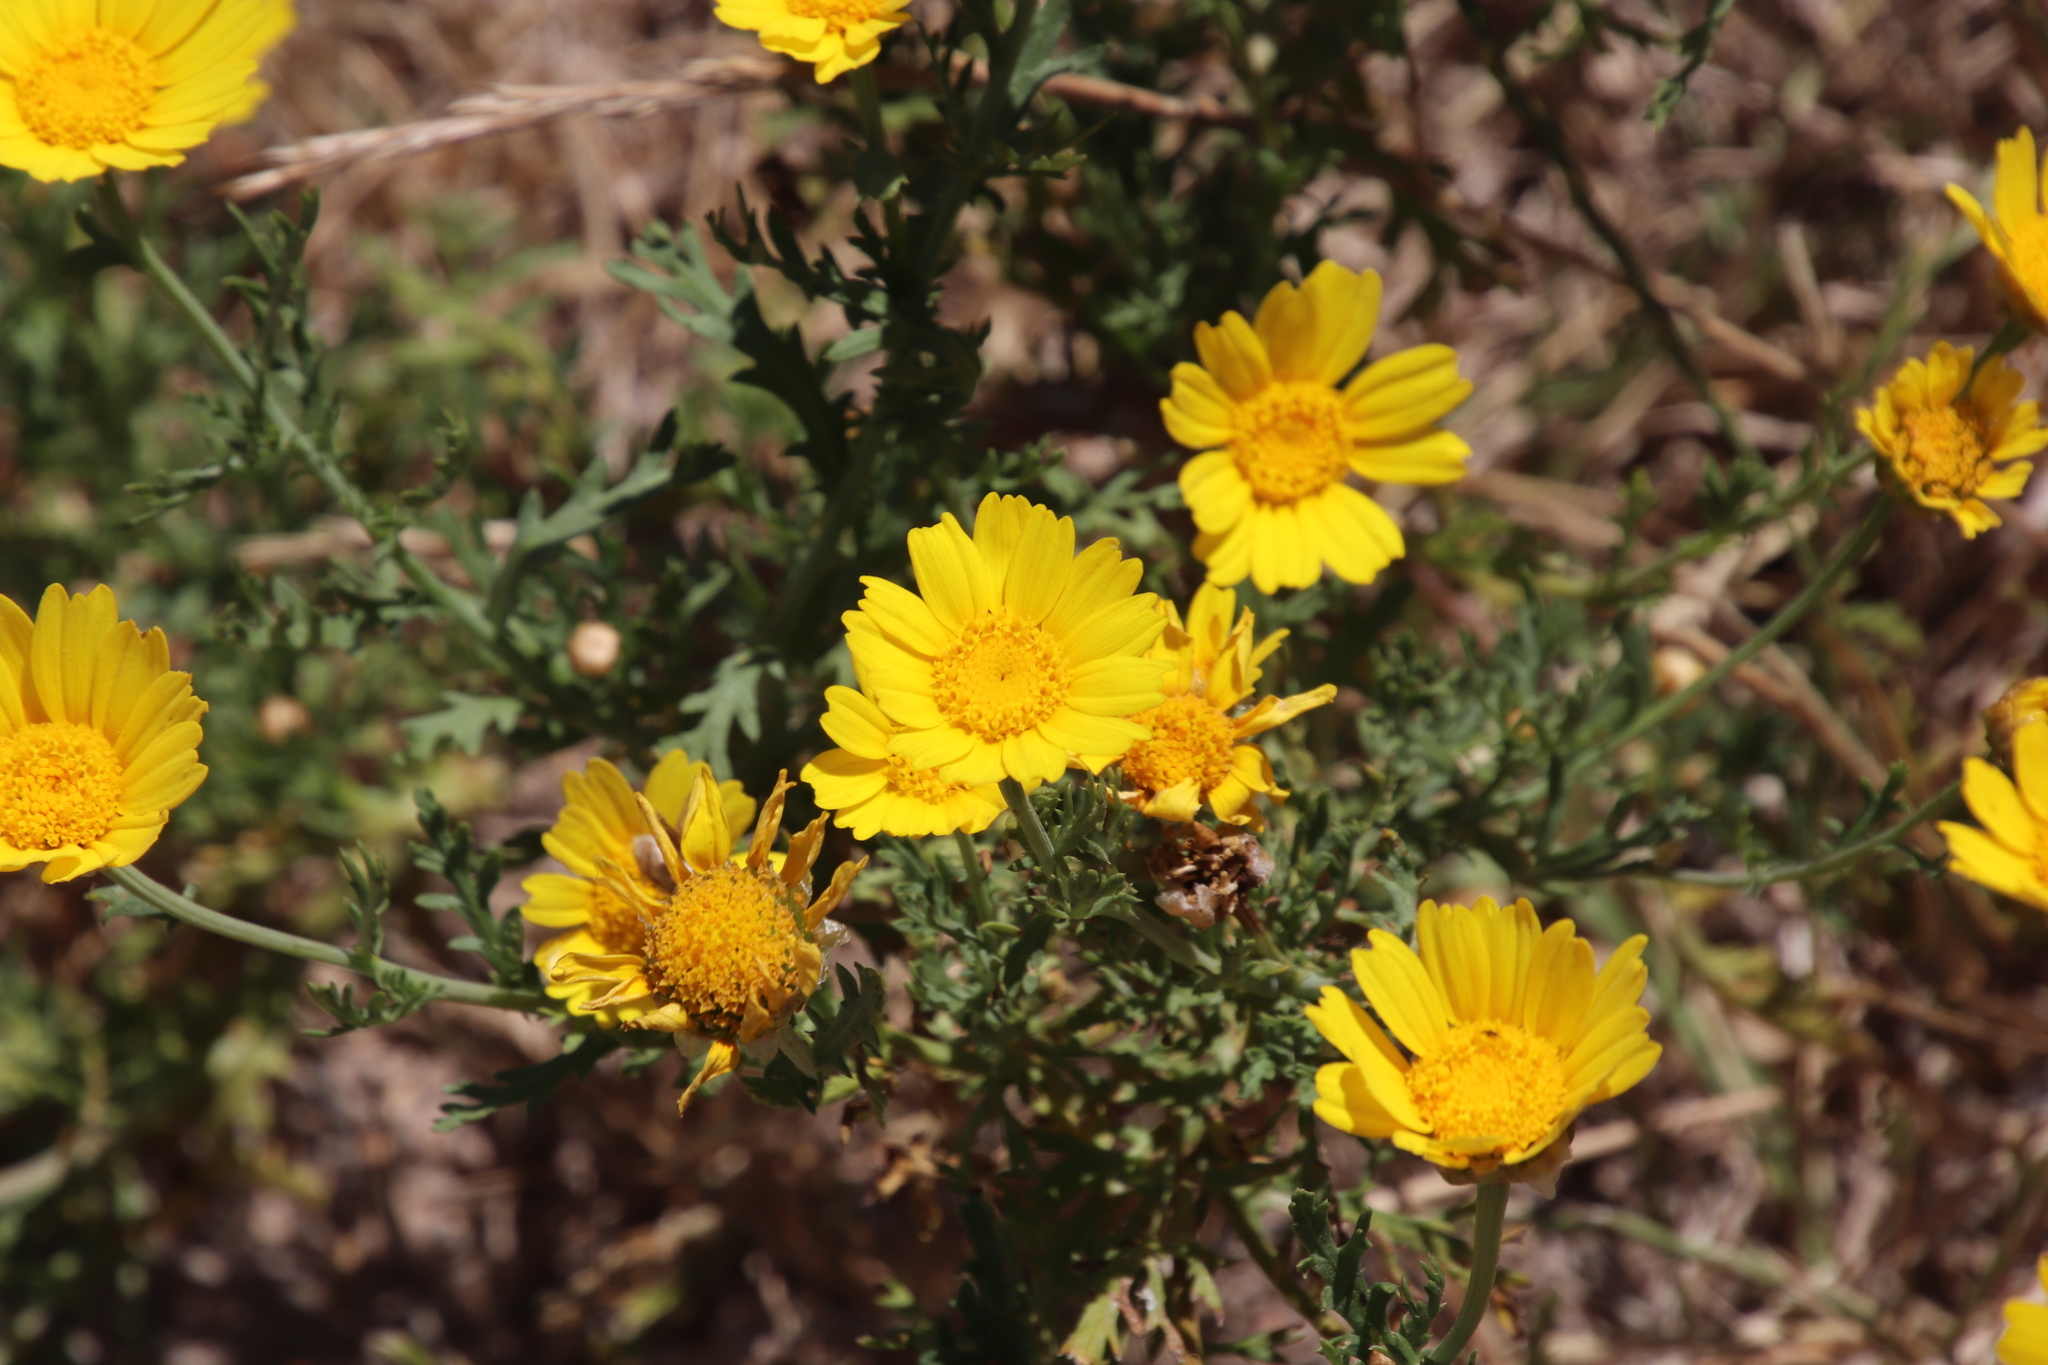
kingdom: Plantae
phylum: Tracheophyta
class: Magnoliopsida
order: Asterales
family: Asteraceae
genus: Glebionis
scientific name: Glebionis coronaria
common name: Crowndaisy
